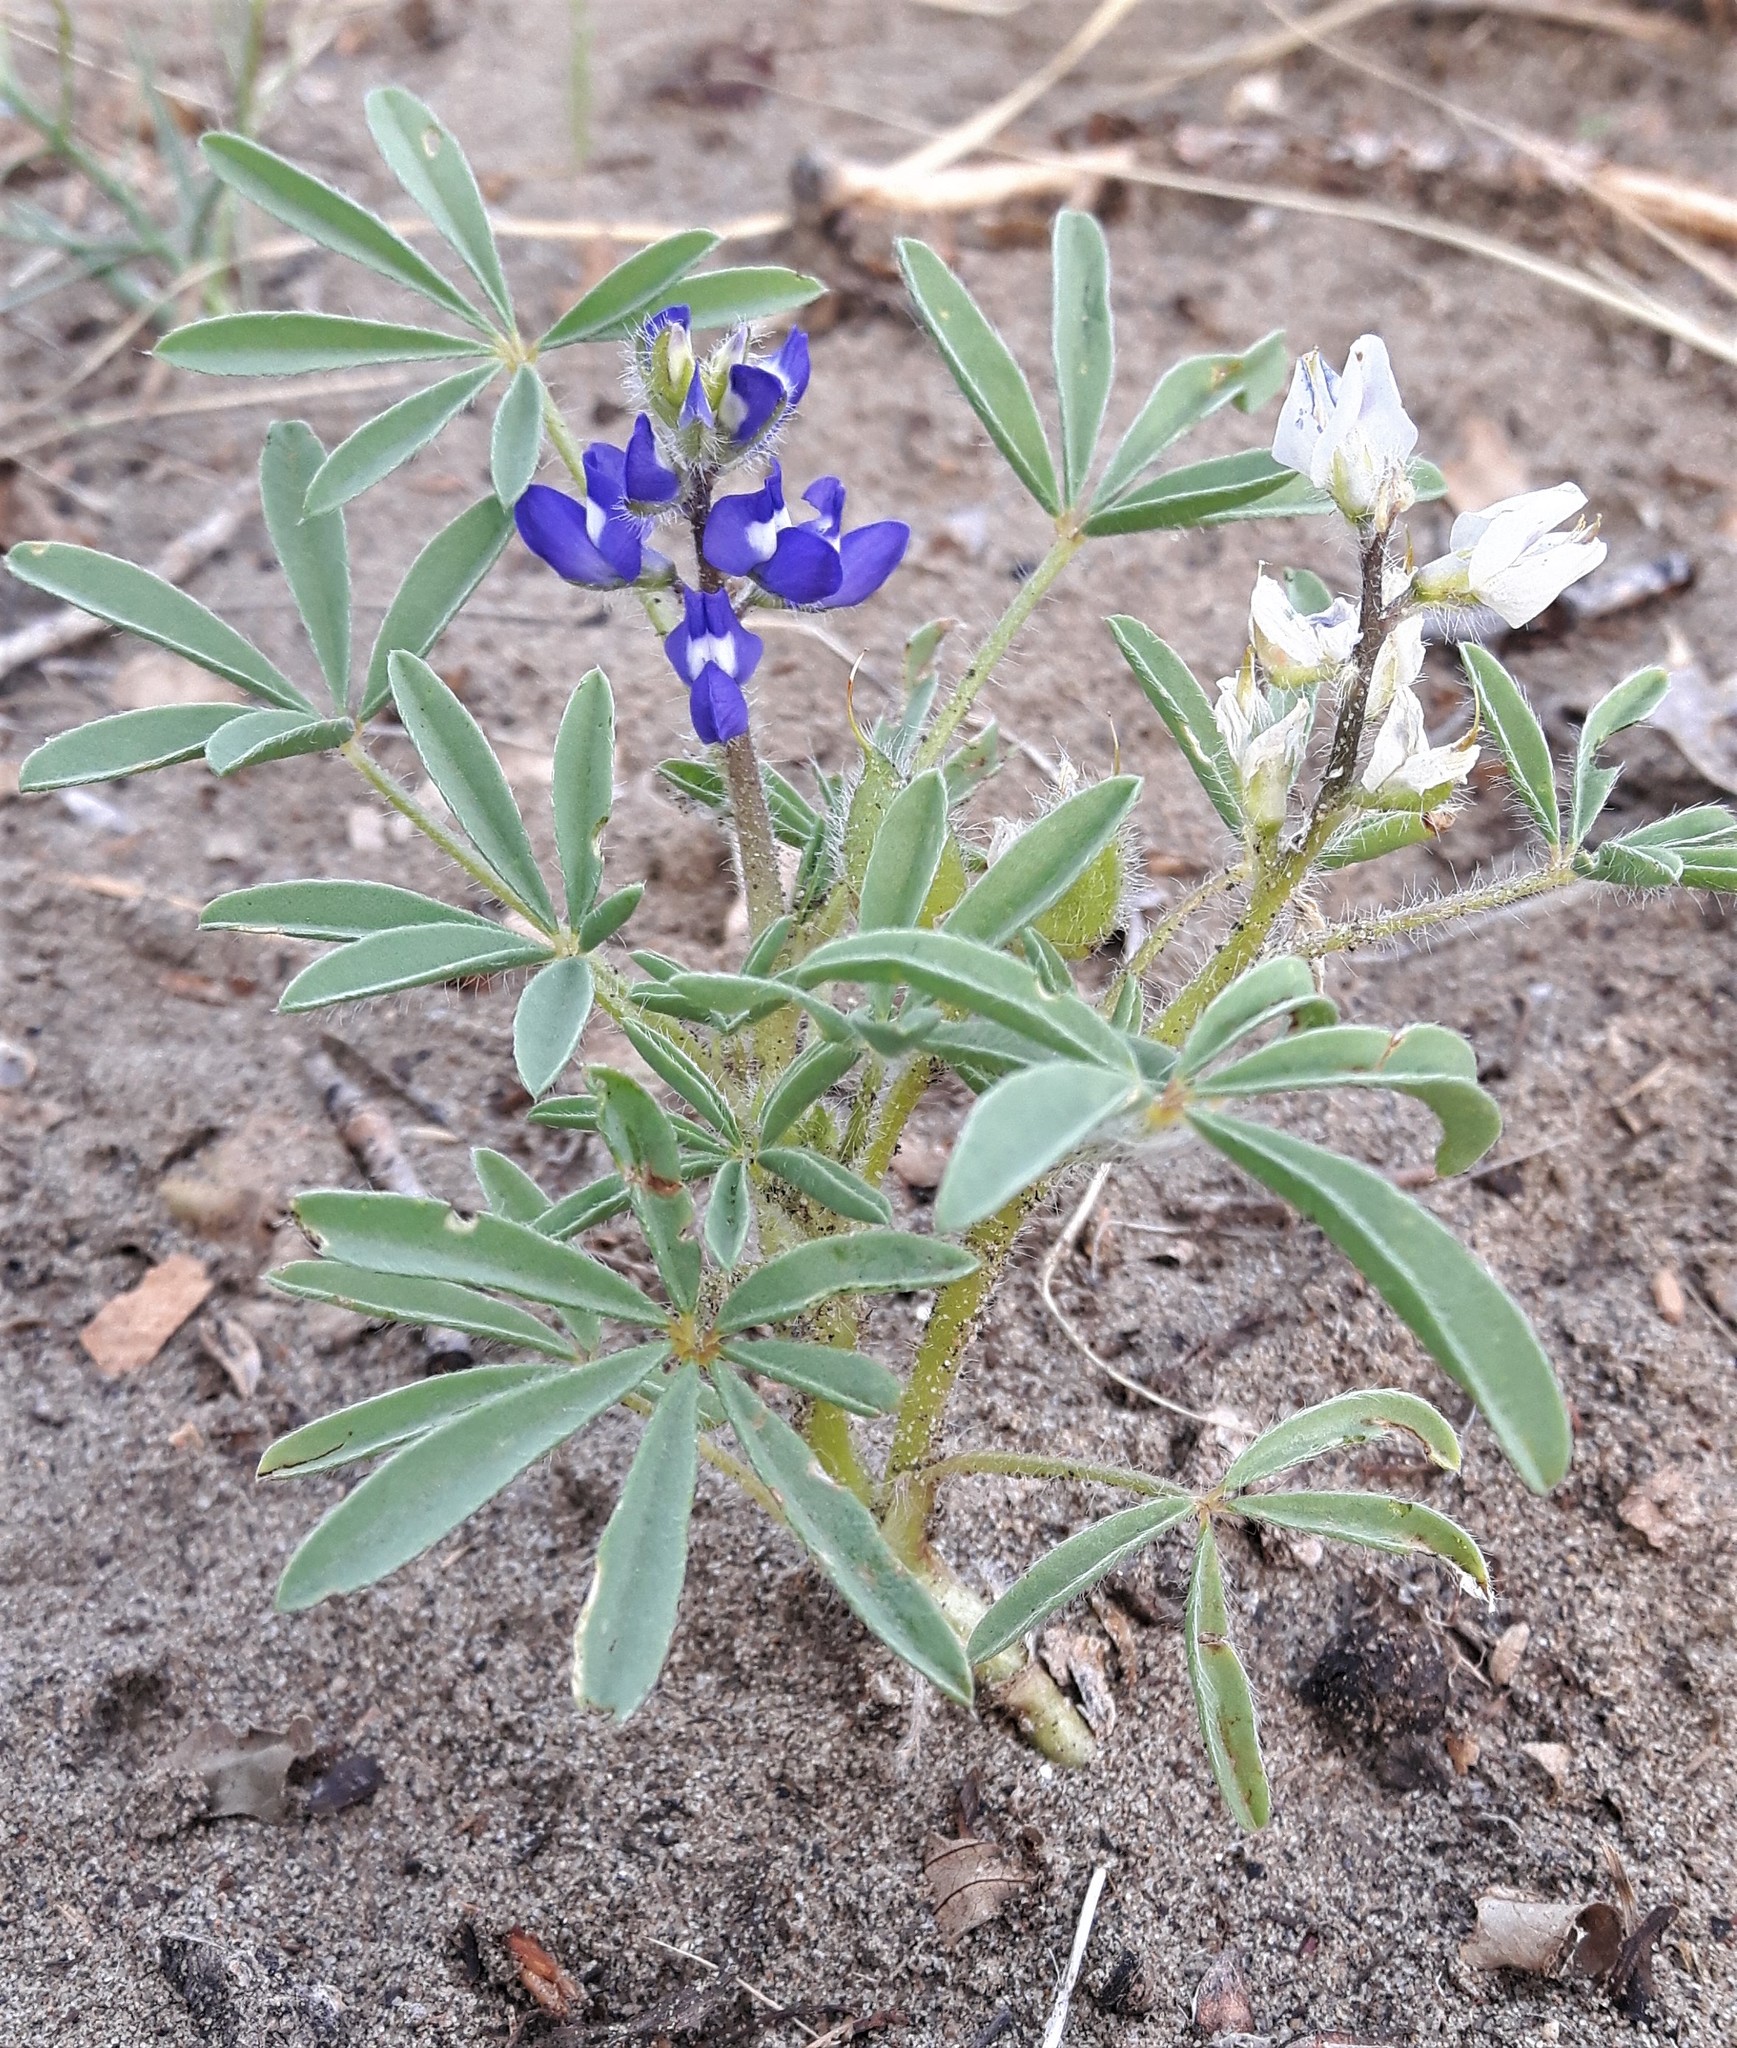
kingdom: Plantae
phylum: Tracheophyta
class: Magnoliopsida
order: Fabales
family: Fabaceae
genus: Lupinus
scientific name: Lupinus pusillus
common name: Low lupine
